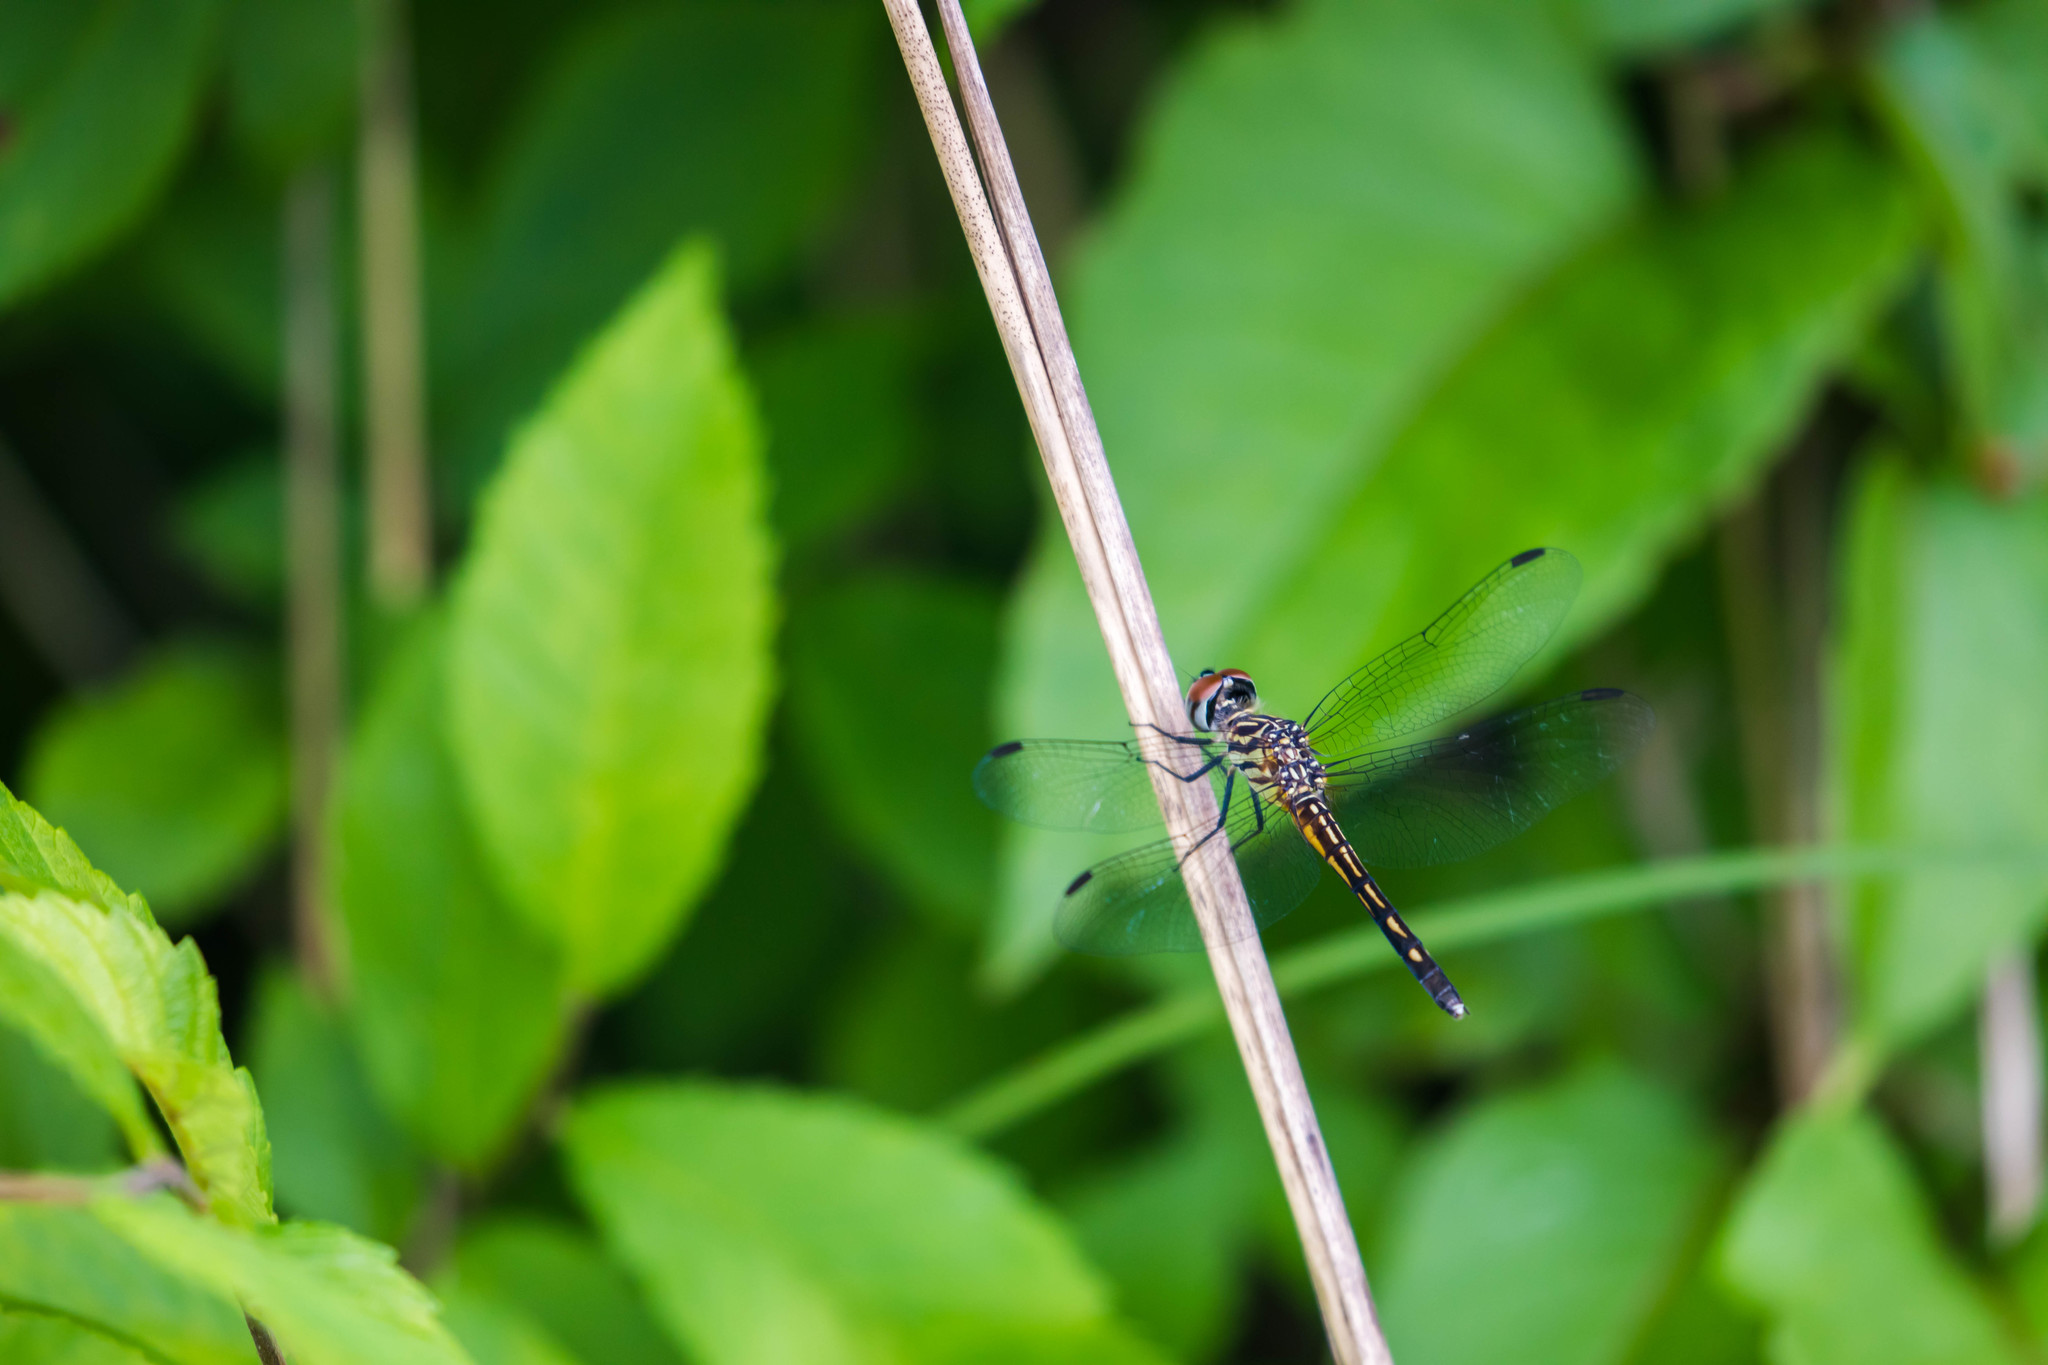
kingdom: Animalia
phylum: Arthropoda
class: Insecta
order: Odonata
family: Libellulidae
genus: Pachydiplax
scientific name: Pachydiplax longipennis
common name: Blue dasher
